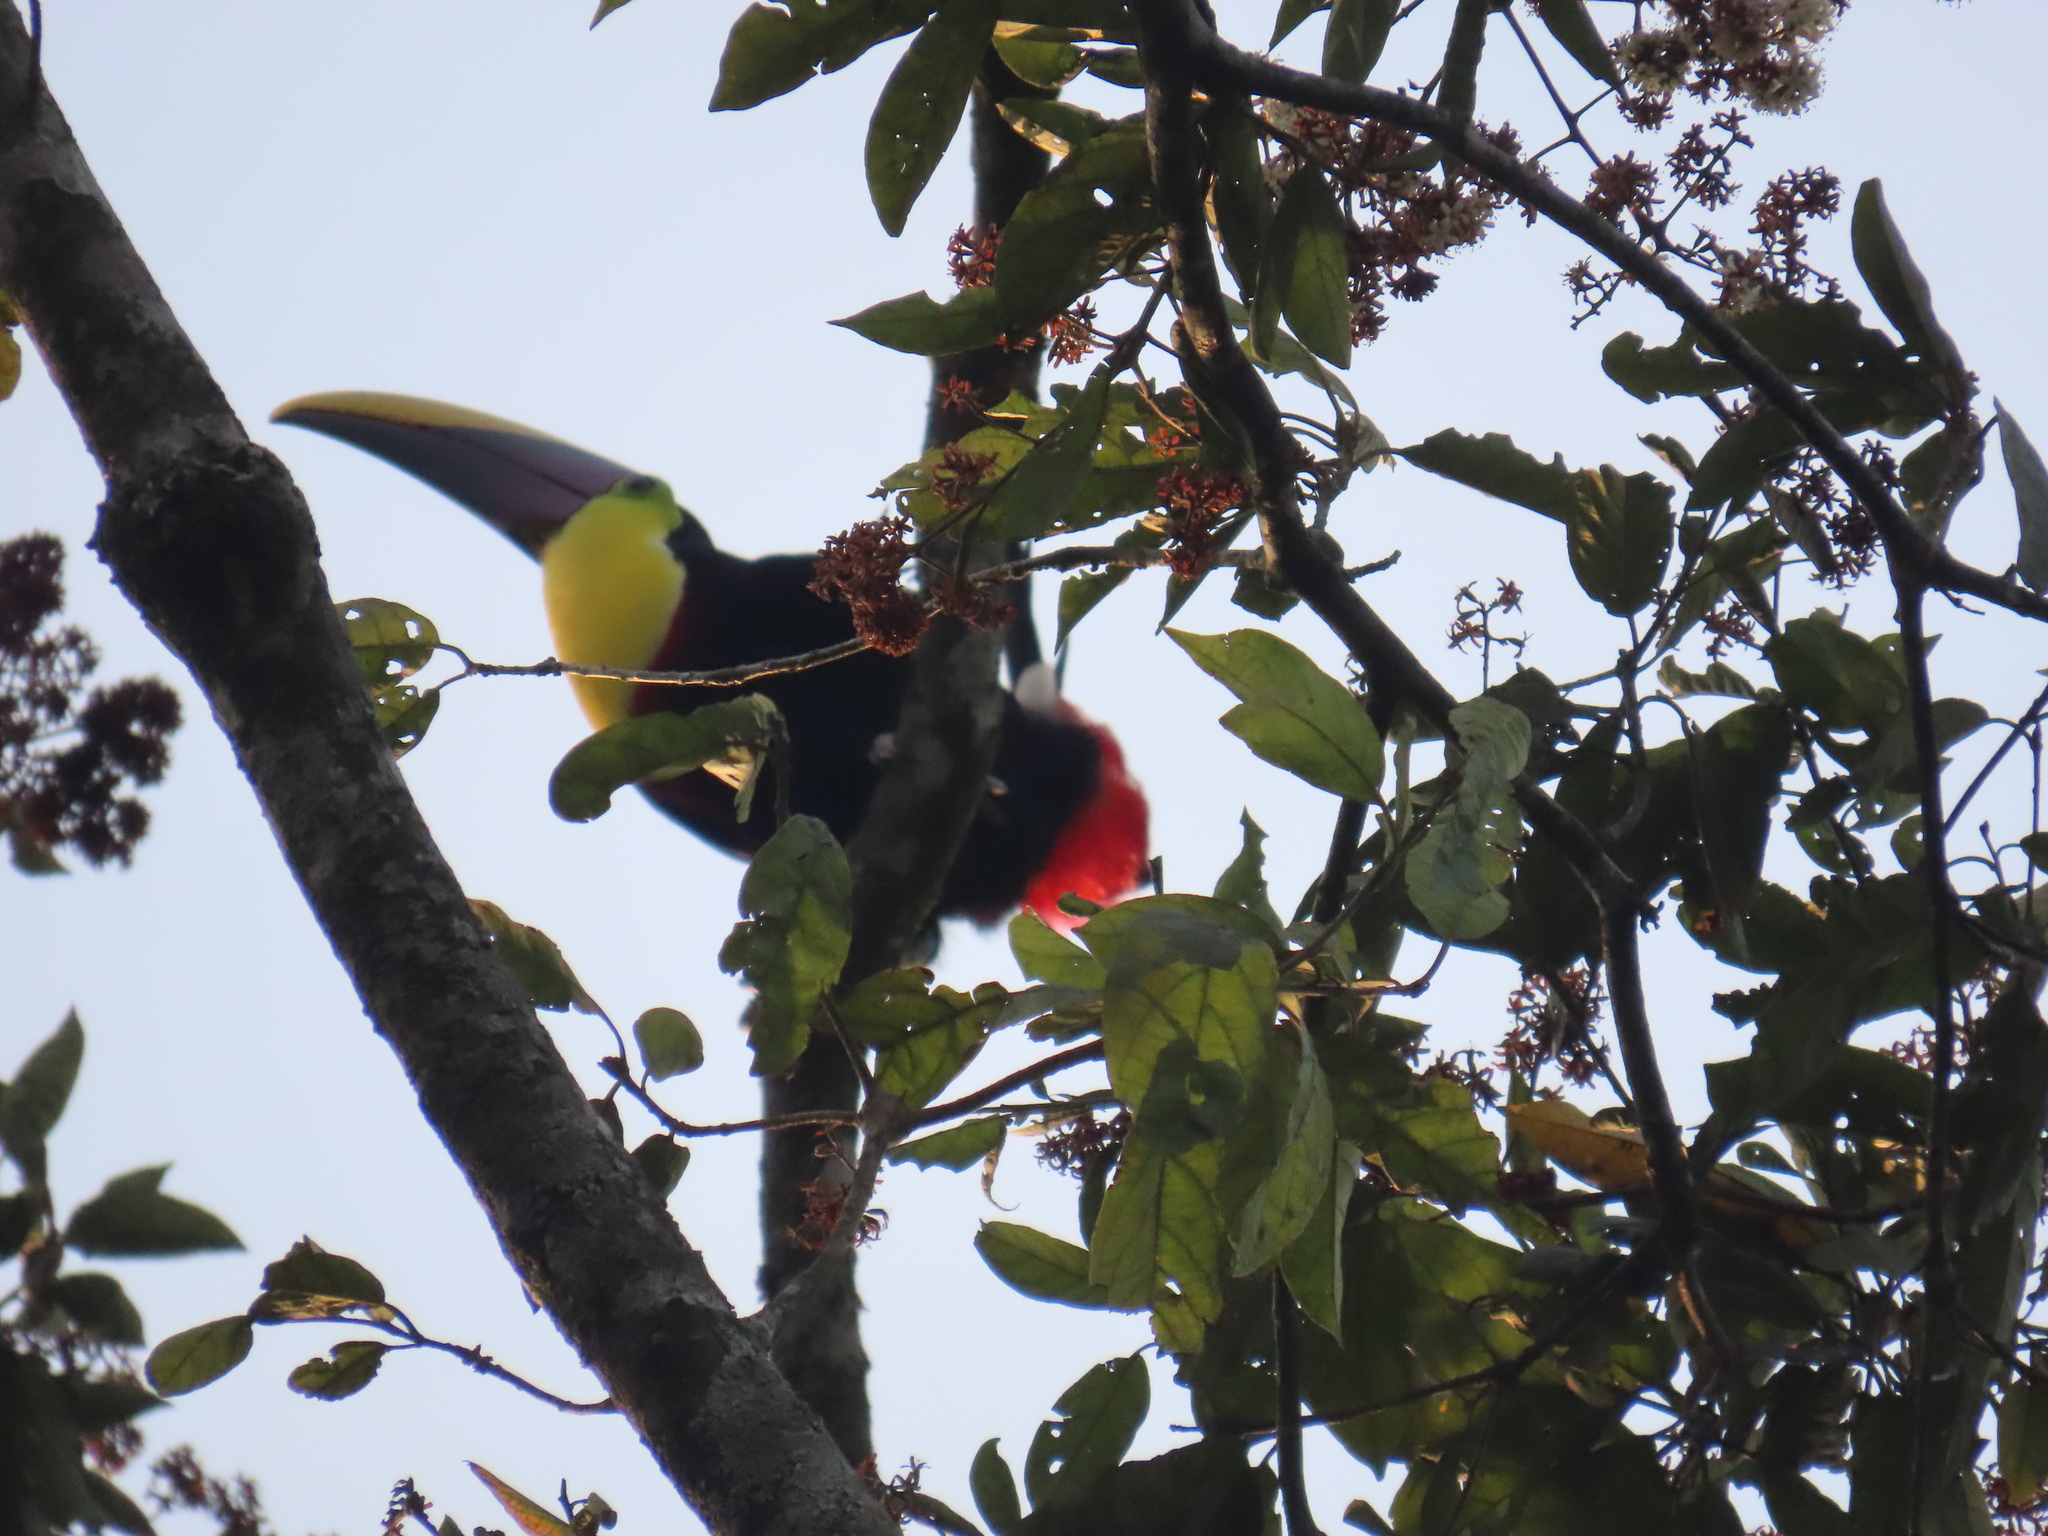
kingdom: Animalia
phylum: Chordata
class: Aves
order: Piciformes
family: Ramphastidae
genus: Ramphastos
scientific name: Ramphastos ambiguus
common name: Yellow-throated toucan
